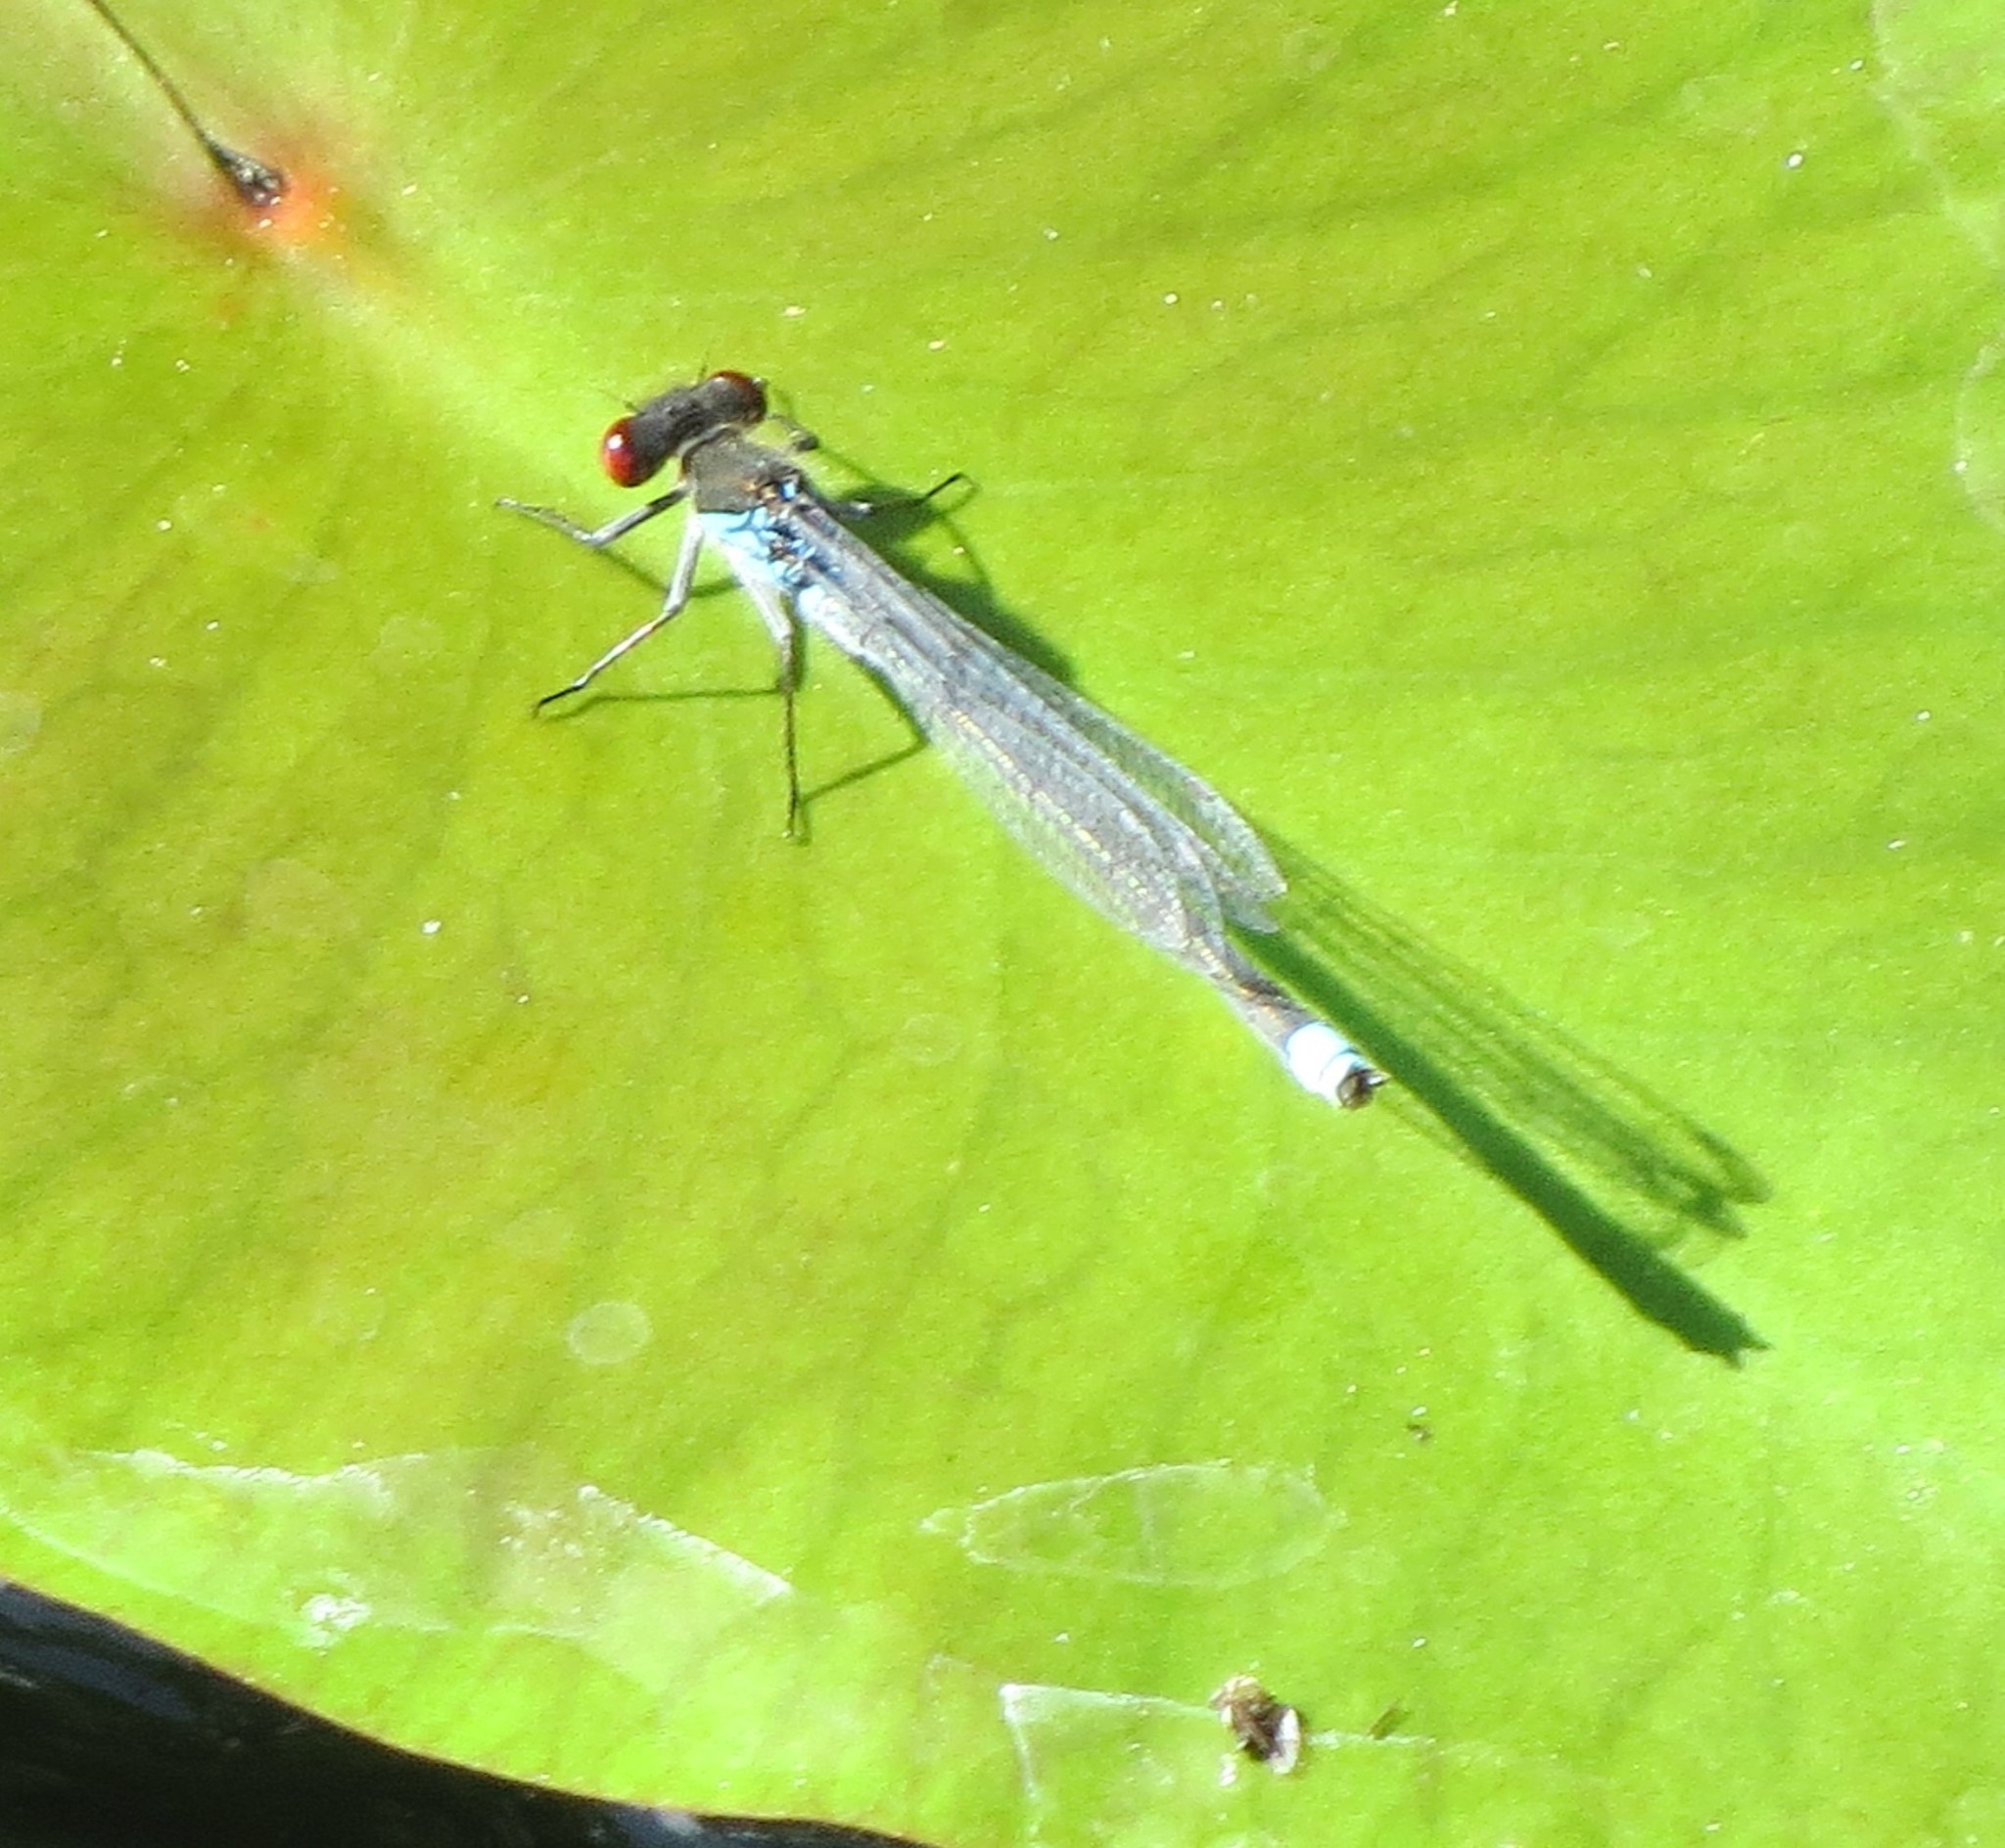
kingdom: Animalia
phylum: Arthropoda
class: Insecta
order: Odonata
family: Coenagrionidae
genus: Erythromma
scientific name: Erythromma najas
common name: Red-eyed damselfly
